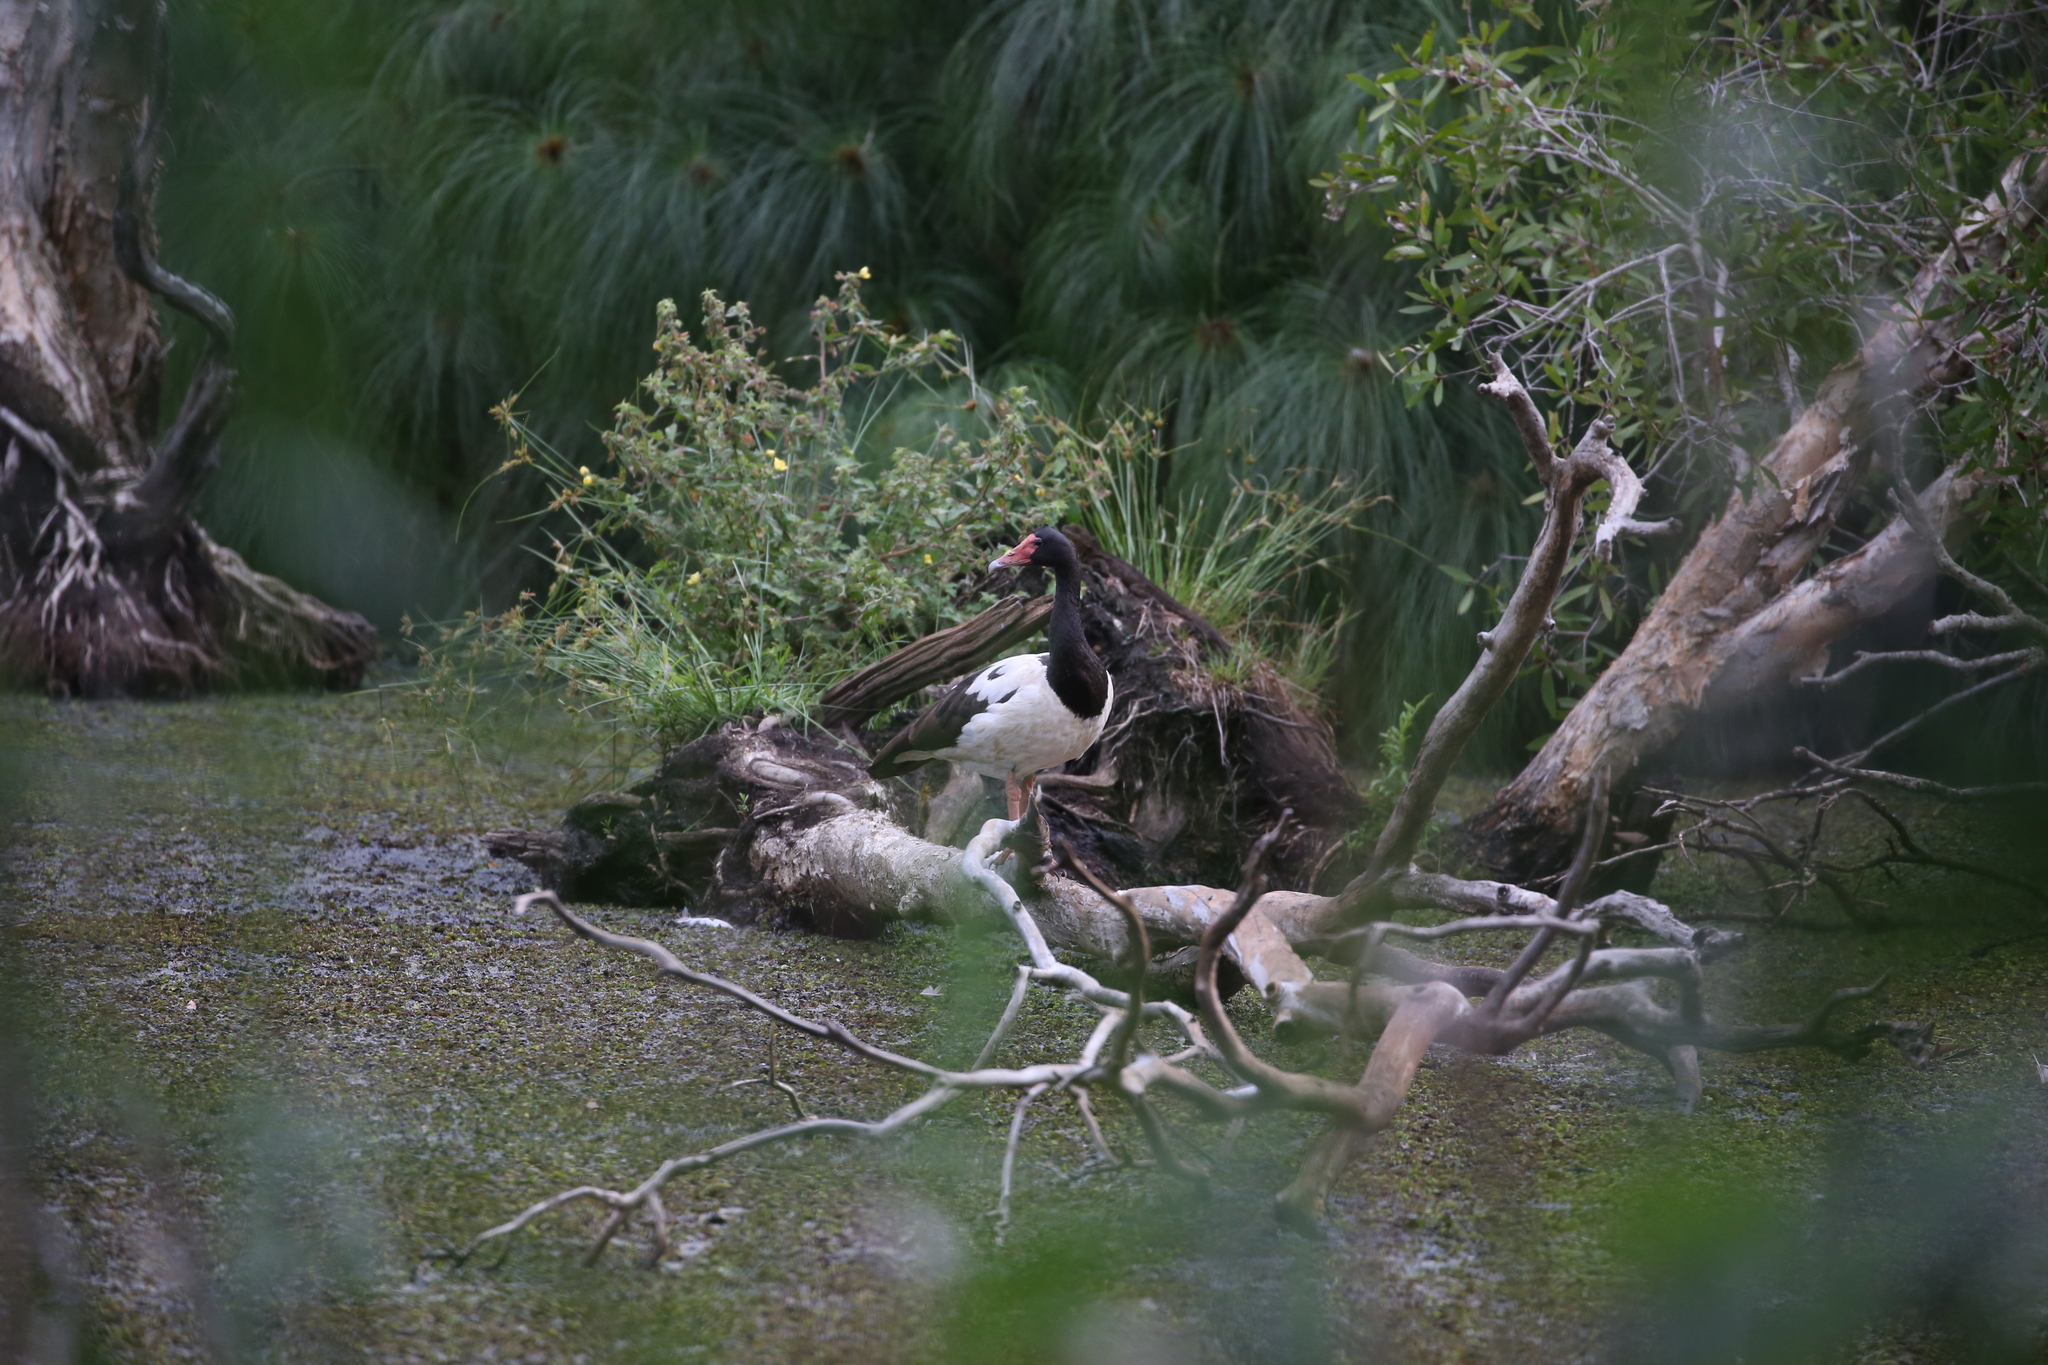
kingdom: Animalia
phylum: Chordata
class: Aves
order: Anseriformes
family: Anseranatidae
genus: Anseranas
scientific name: Anseranas semipalmata
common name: Magpie goose
